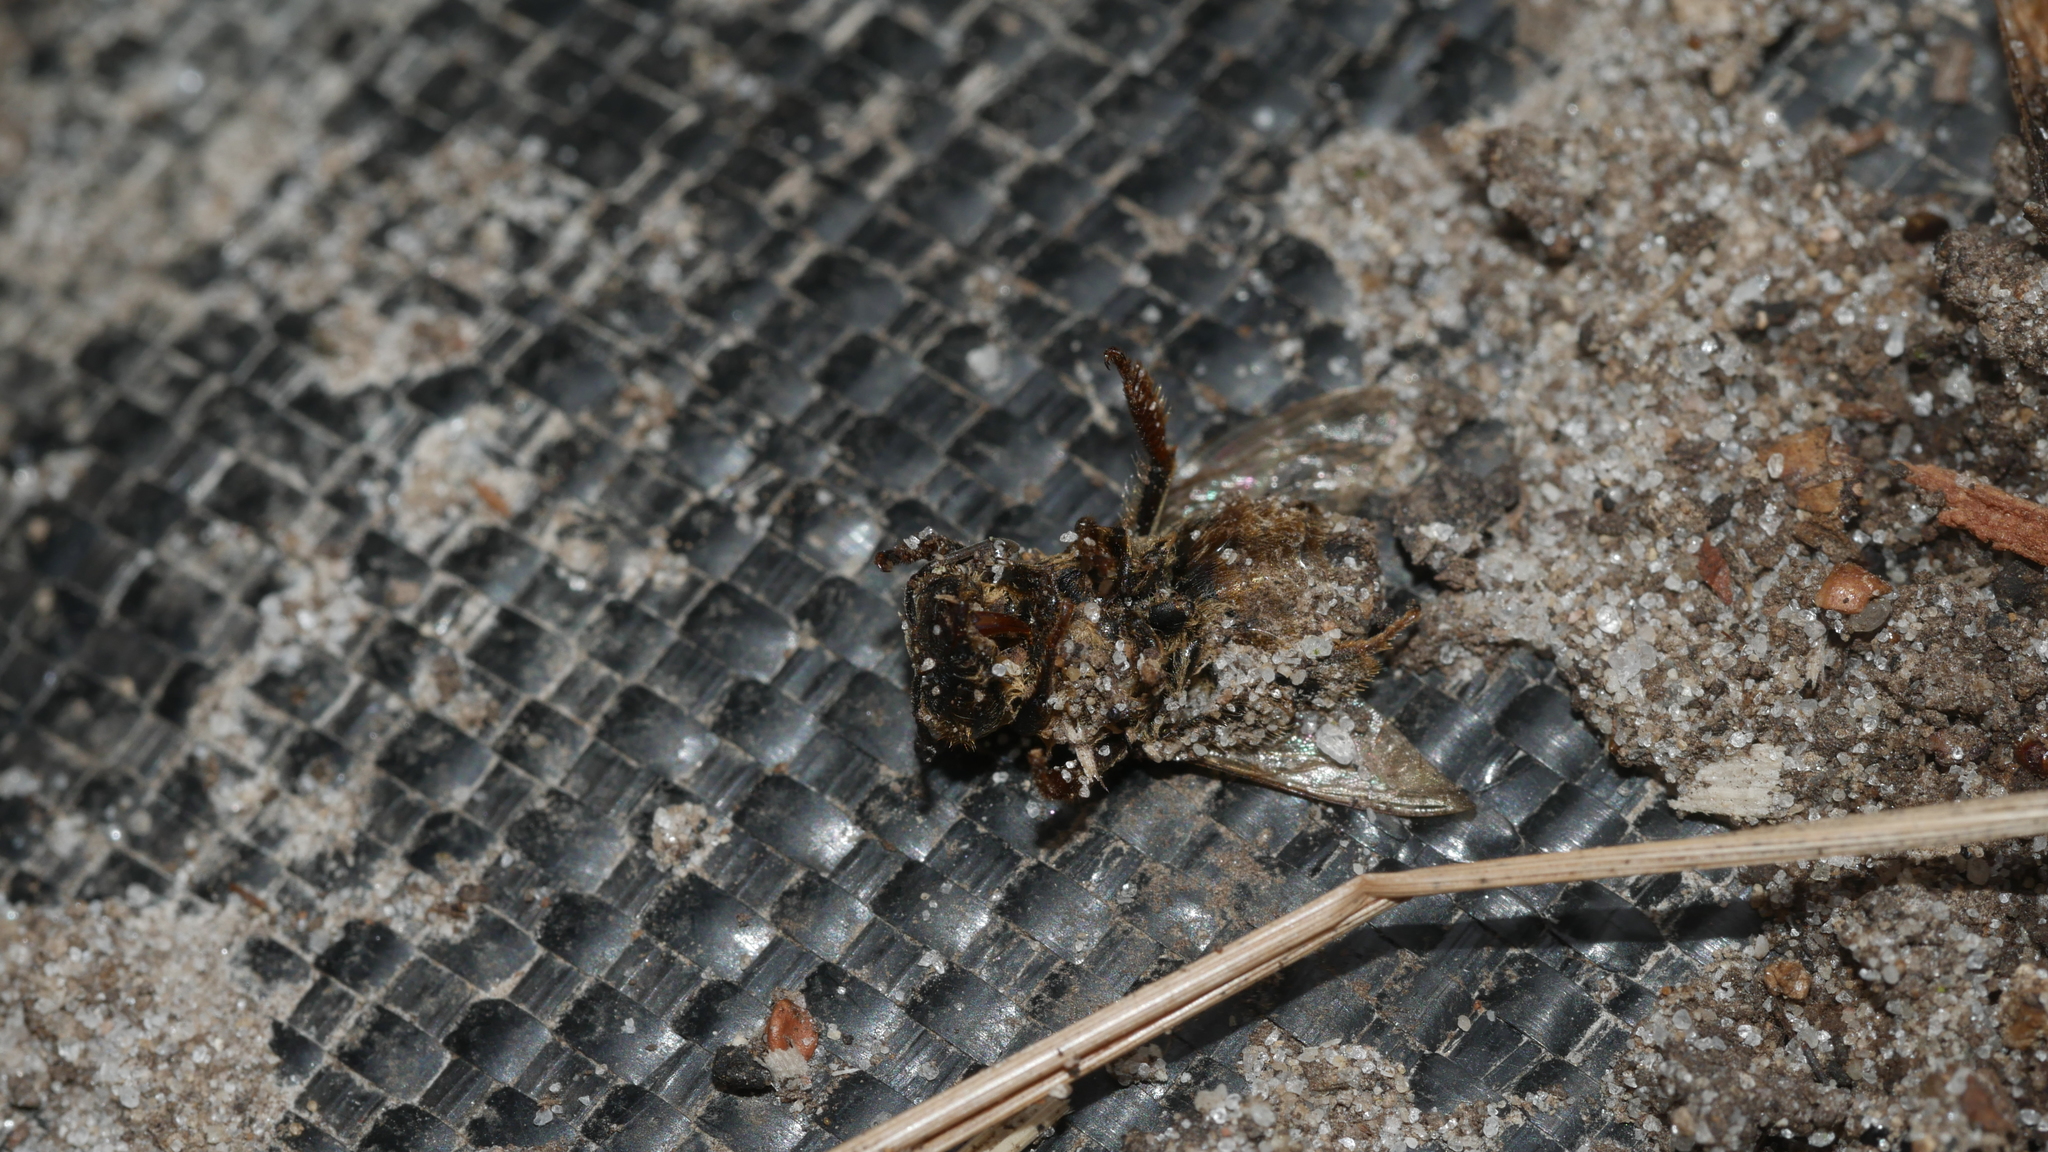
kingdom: Animalia
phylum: Arthropoda
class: Insecta
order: Hymenoptera
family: Apidae
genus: Apis
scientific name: Apis mellifera
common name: Honey bee
